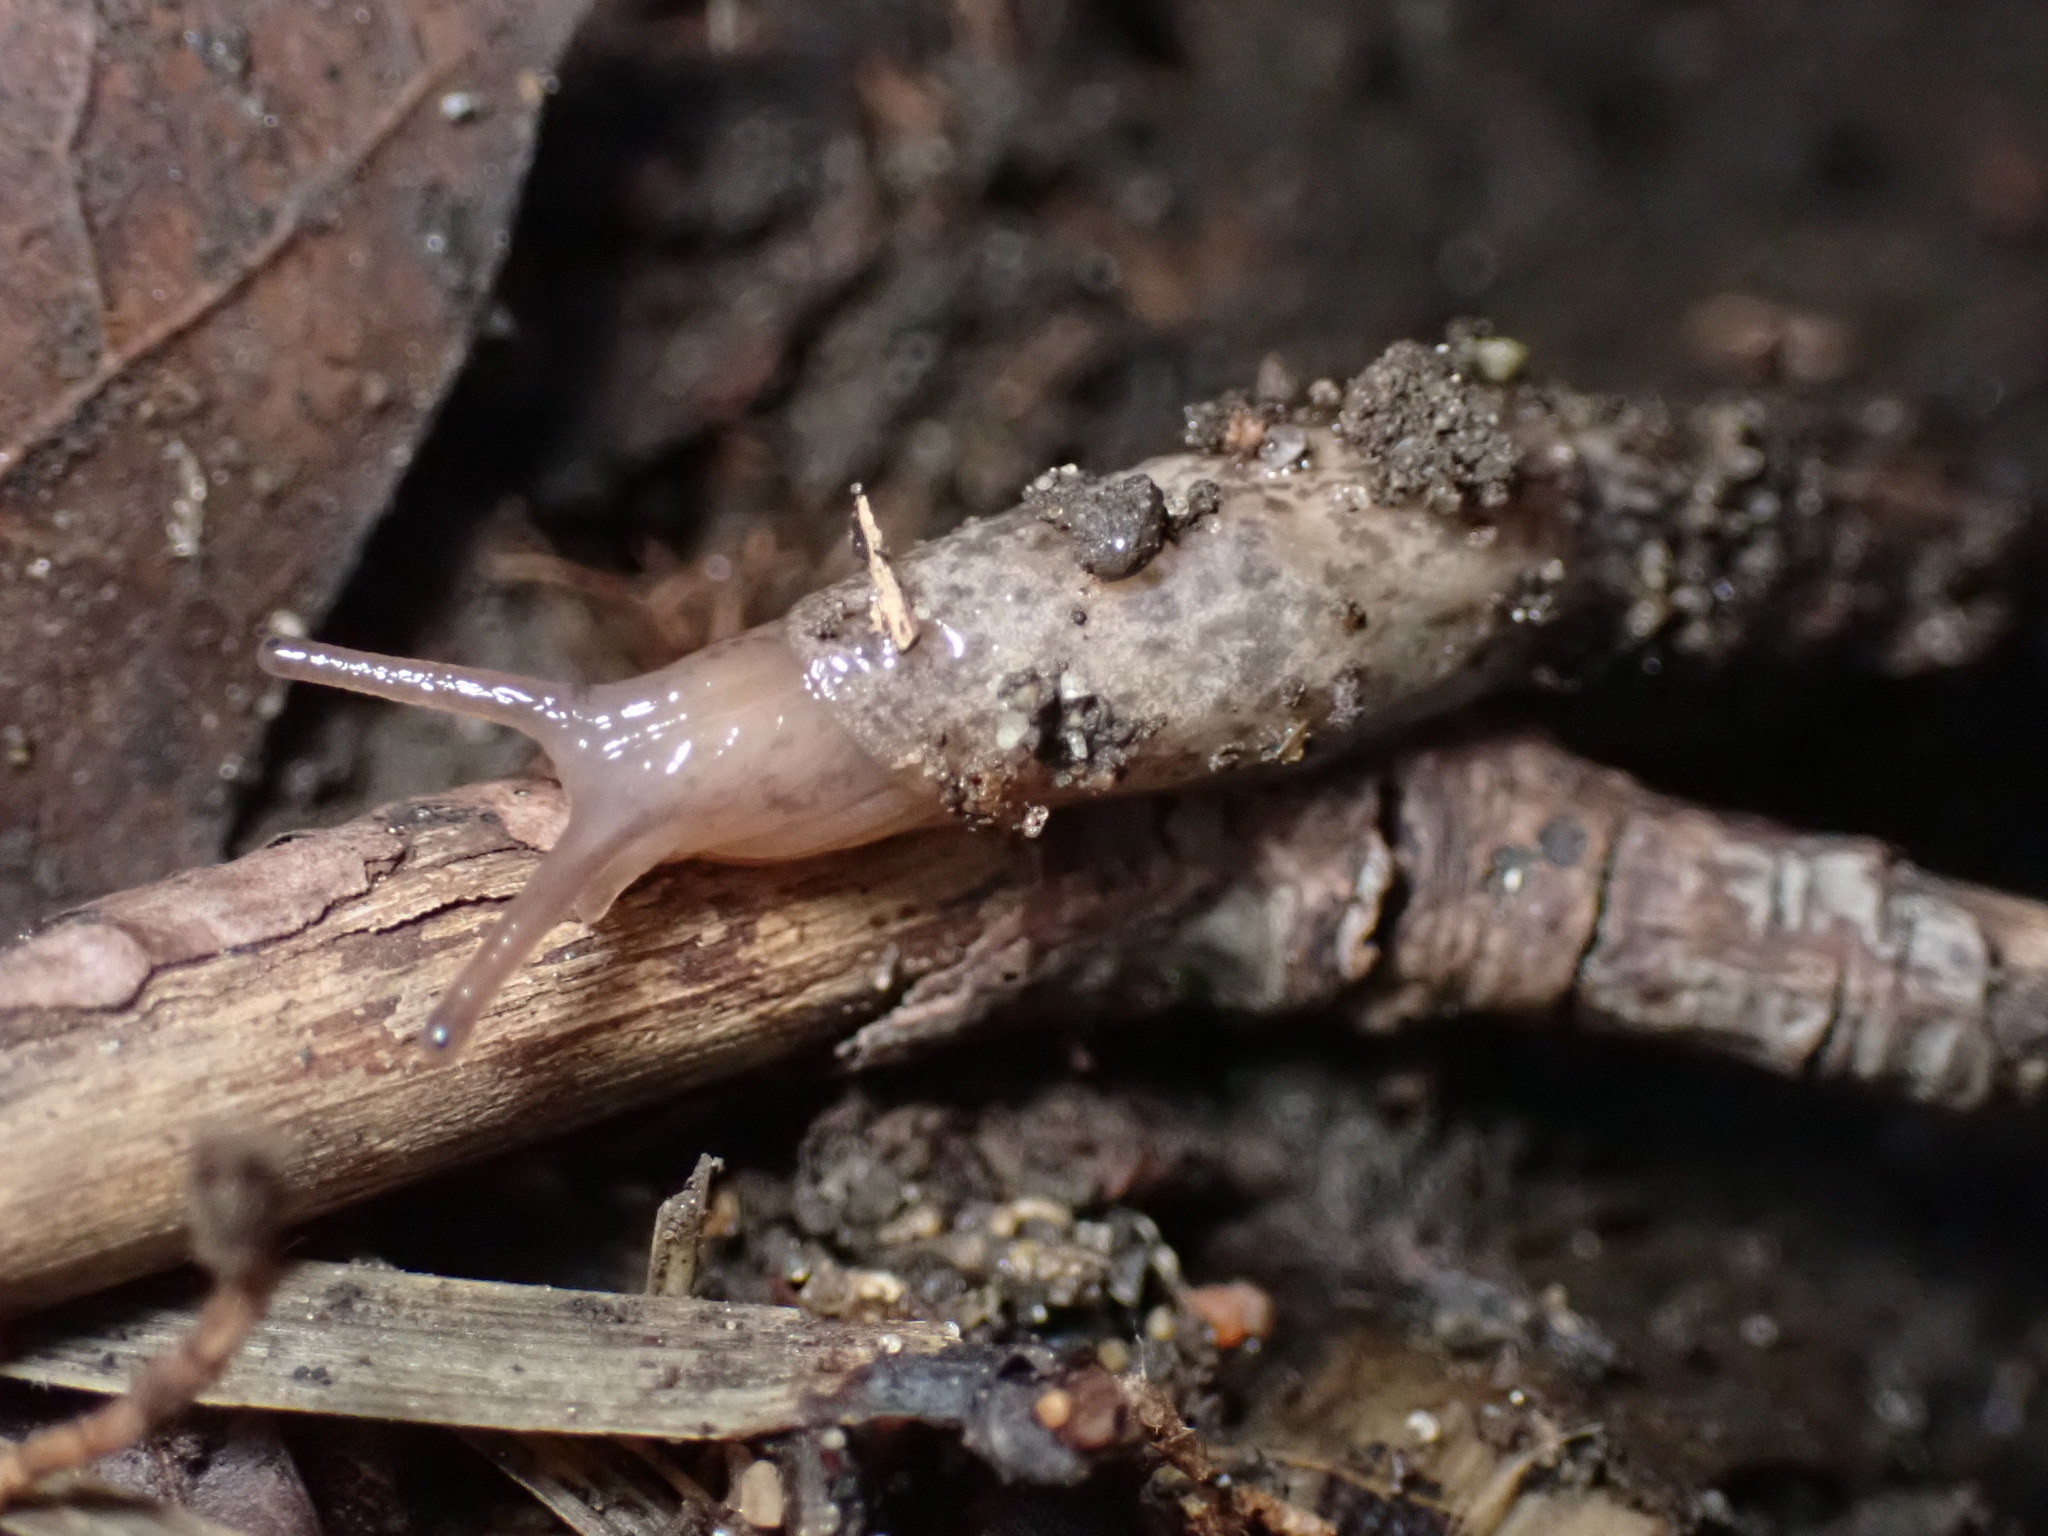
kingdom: Animalia
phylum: Mollusca
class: Gastropoda
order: Stylommatophora
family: Agriolimacidae
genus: Deroceras
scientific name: Deroceras reticulatum
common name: Gray field slug
